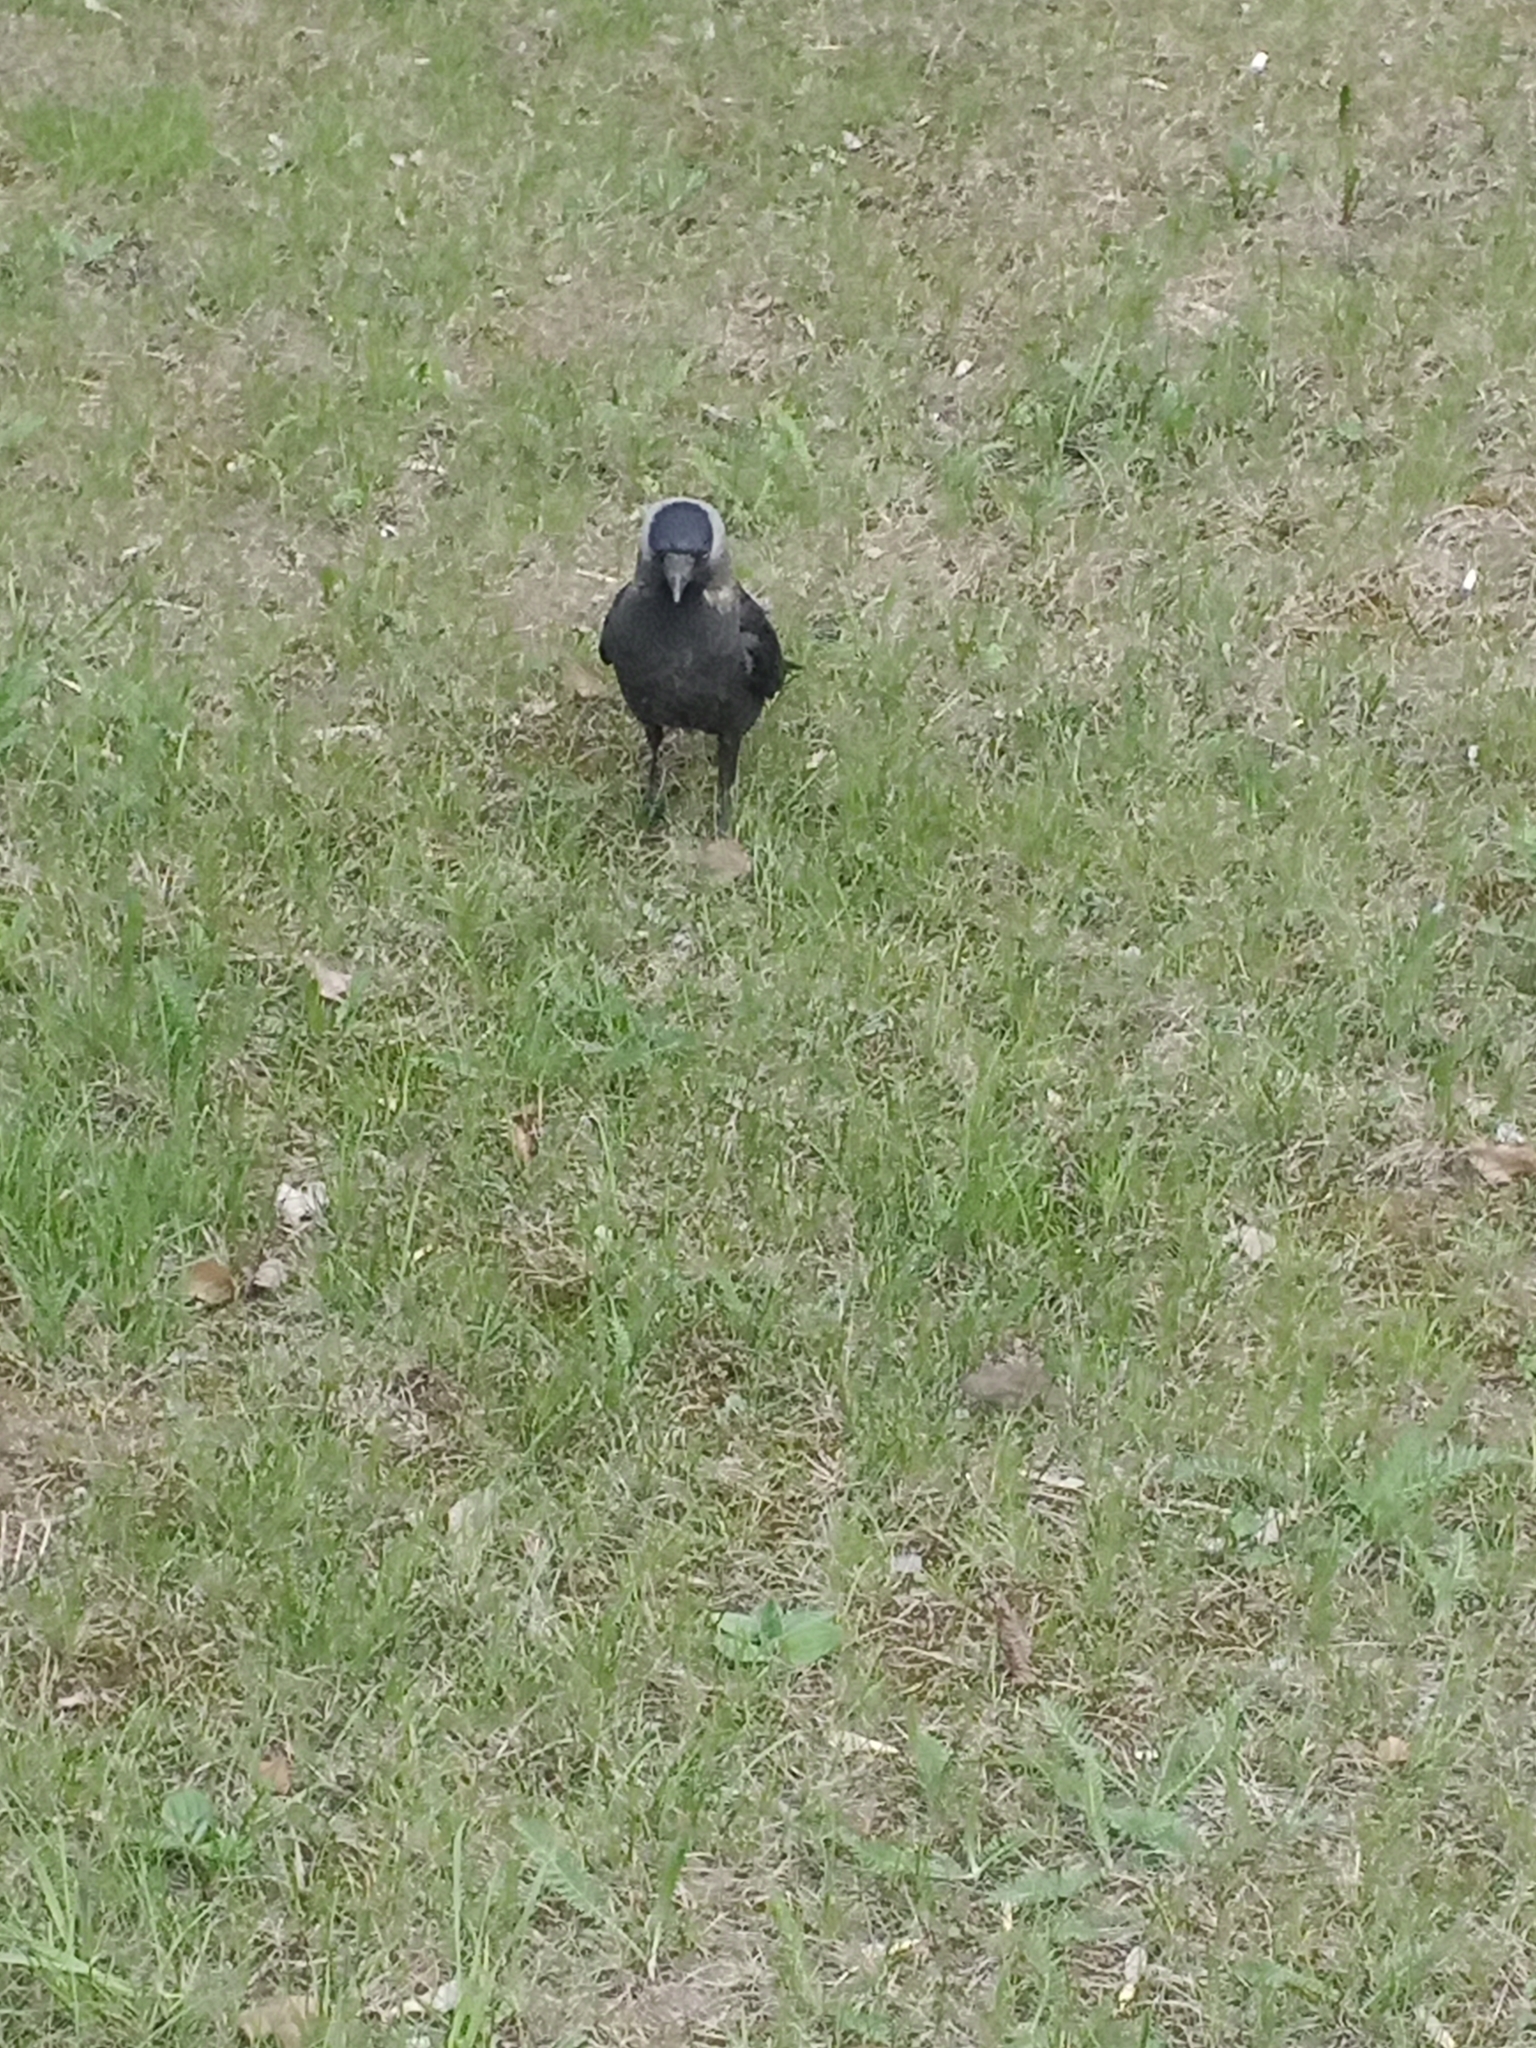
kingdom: Animalia
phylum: Chordata
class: Aves
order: Passeriformes
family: Corvidae
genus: Coloeus
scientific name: Coloeus monedula
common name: Western jackdaw
